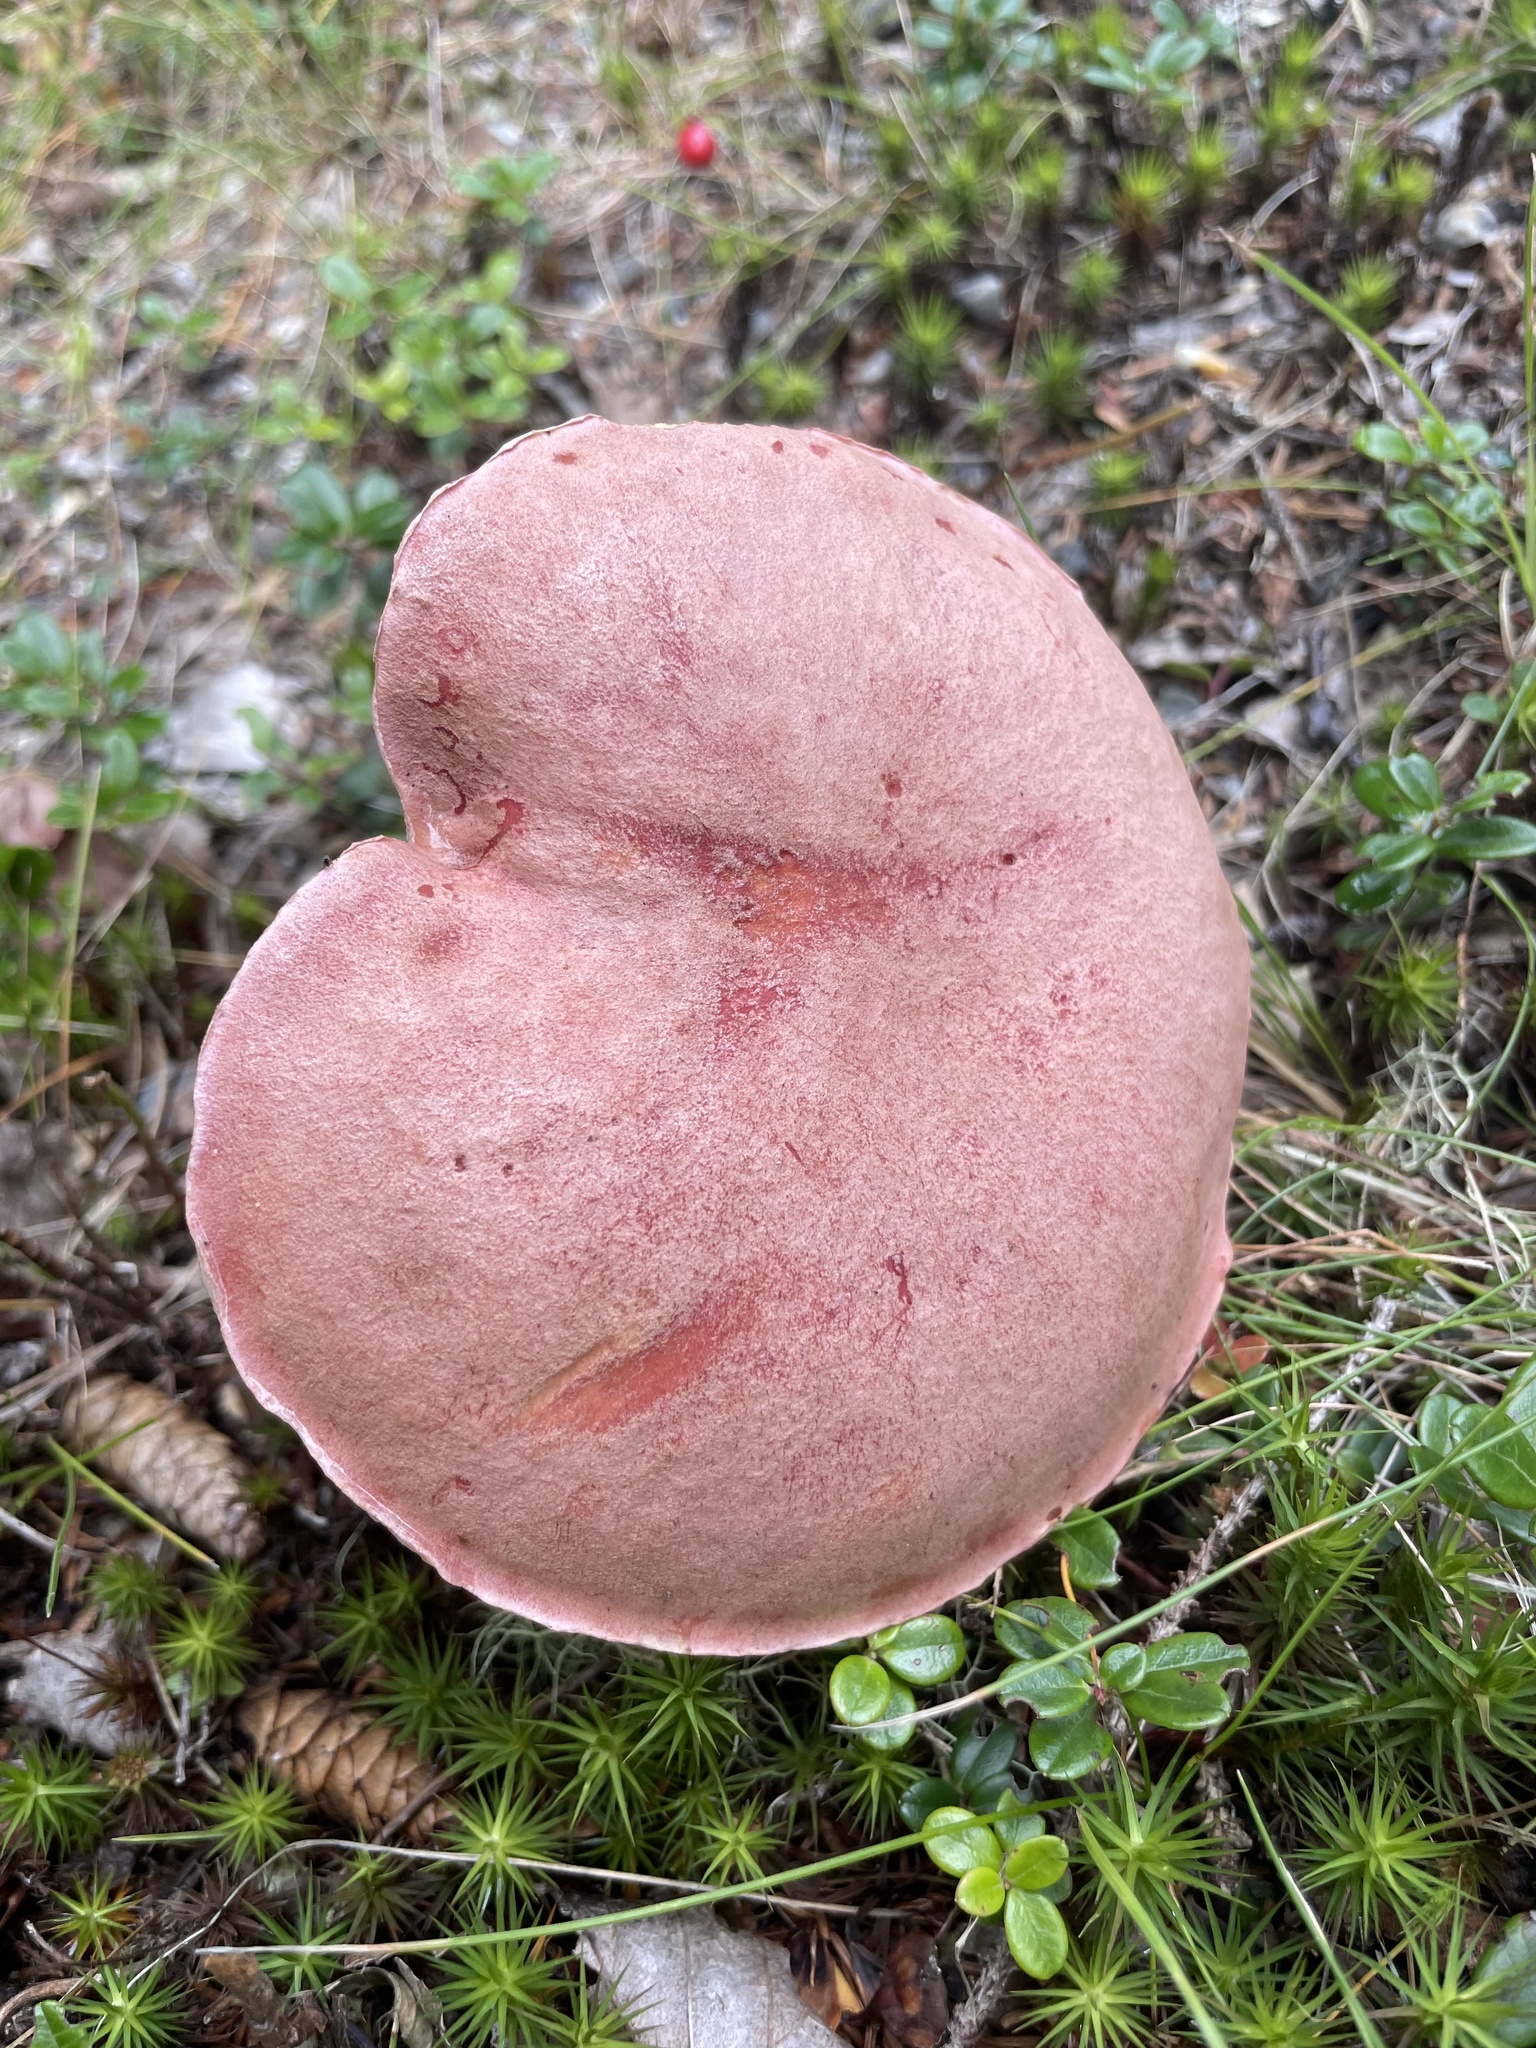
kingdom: Fungi
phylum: Basidiomycota
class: Agaricomycetes
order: Boletales
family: Boletaceae
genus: Harrya
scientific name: Harrya chromipes
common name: Chrome-footed bolete
